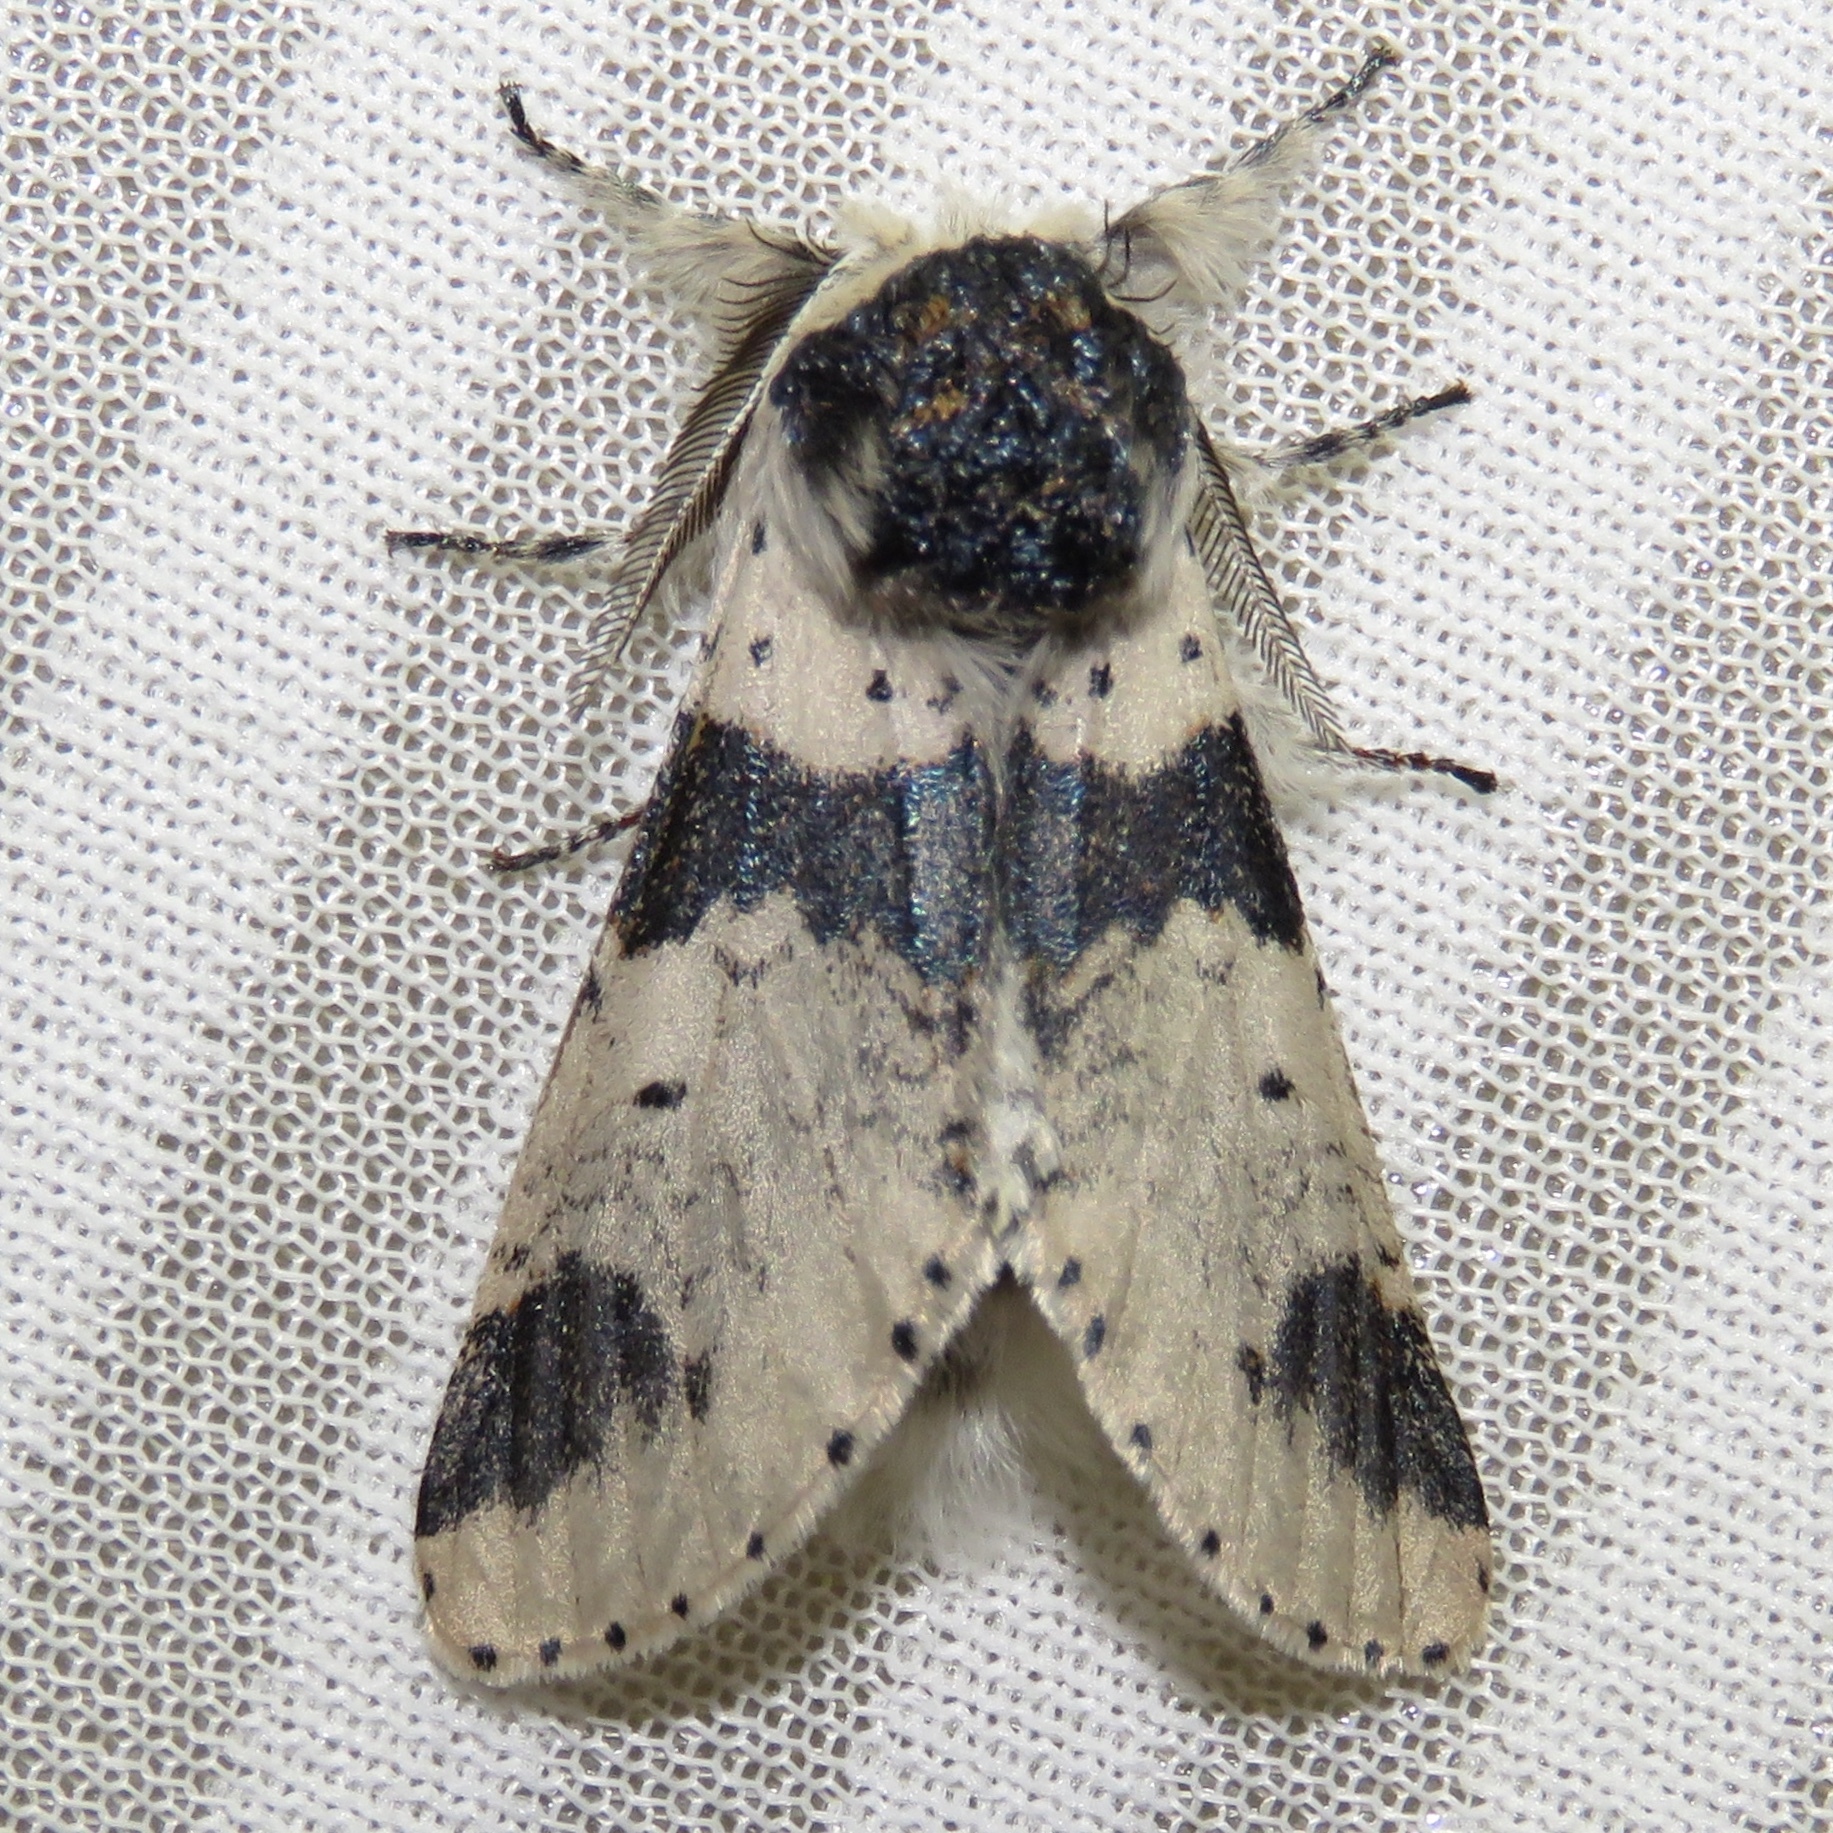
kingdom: Animalia
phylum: Arthropoda
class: Insecta
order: Lepidoptera
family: Notodontidae
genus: Furcula
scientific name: Furcula modesta
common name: Modest furcula moth
